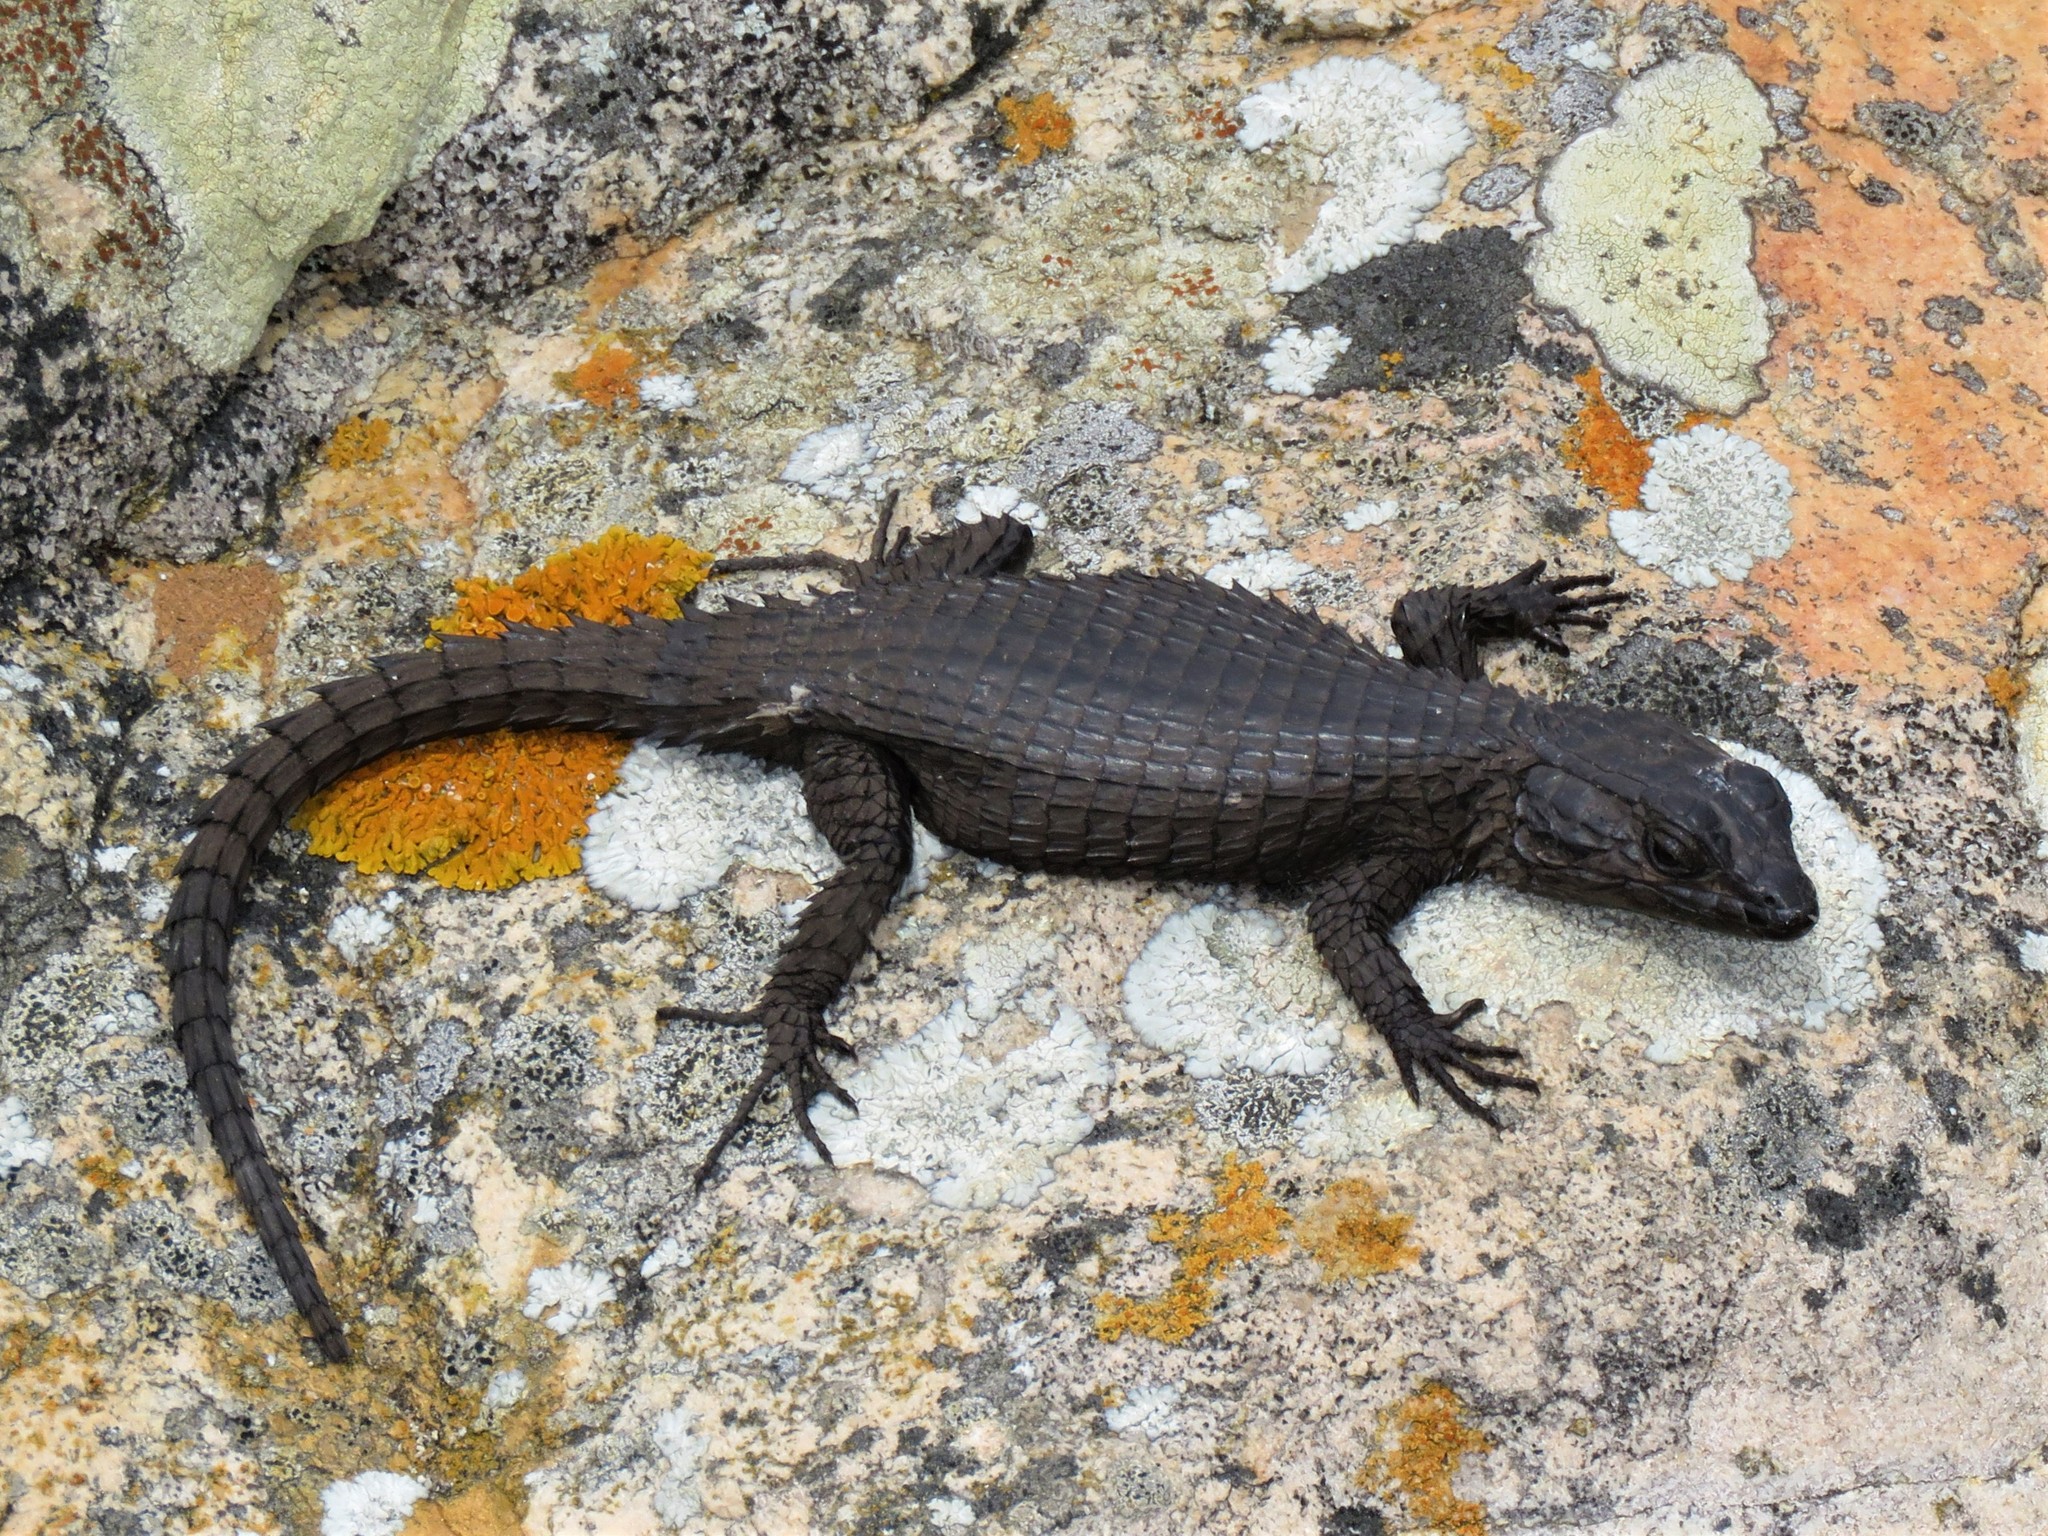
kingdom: Animalia
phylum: Chordata
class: Squamata
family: Cordylidae
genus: Cordylus
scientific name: Cordylus niger
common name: Black girdled lizard
